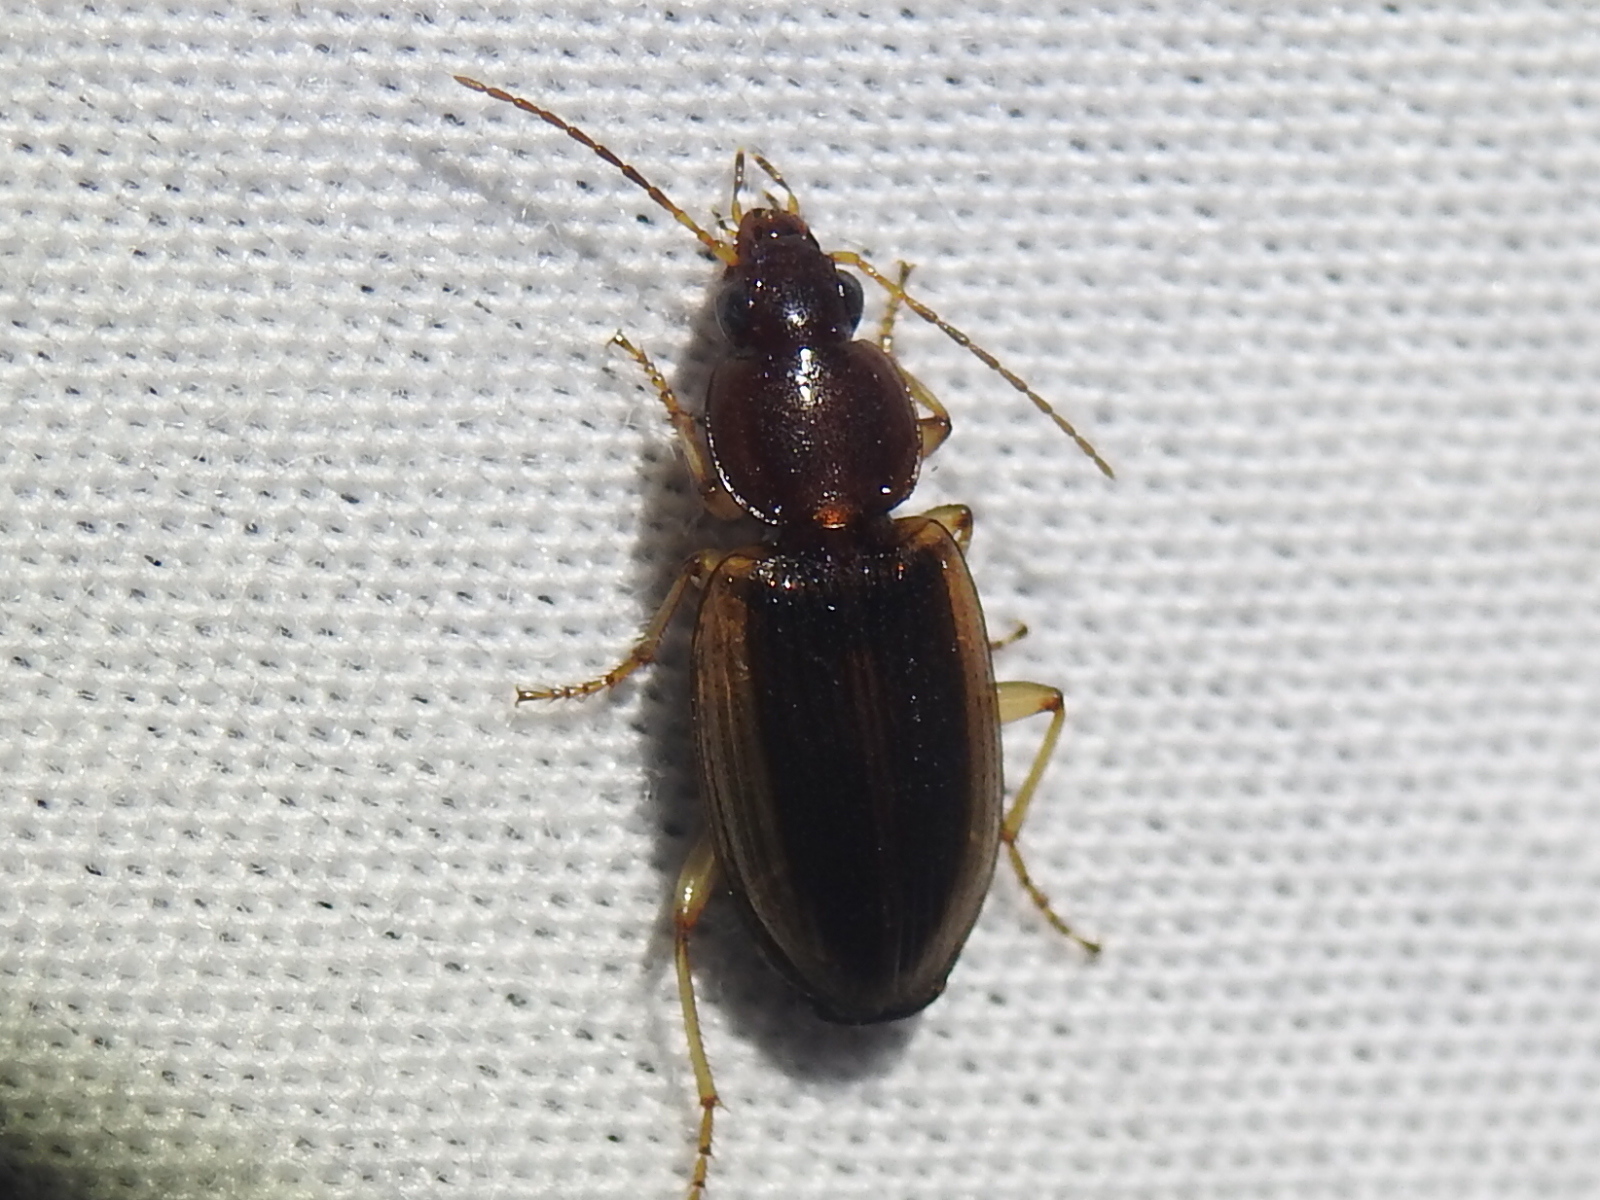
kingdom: Animalia
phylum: Arthropoda
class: Insecta
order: Coleoptera
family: Carabidae
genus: Agonum
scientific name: Agonum pallipes
